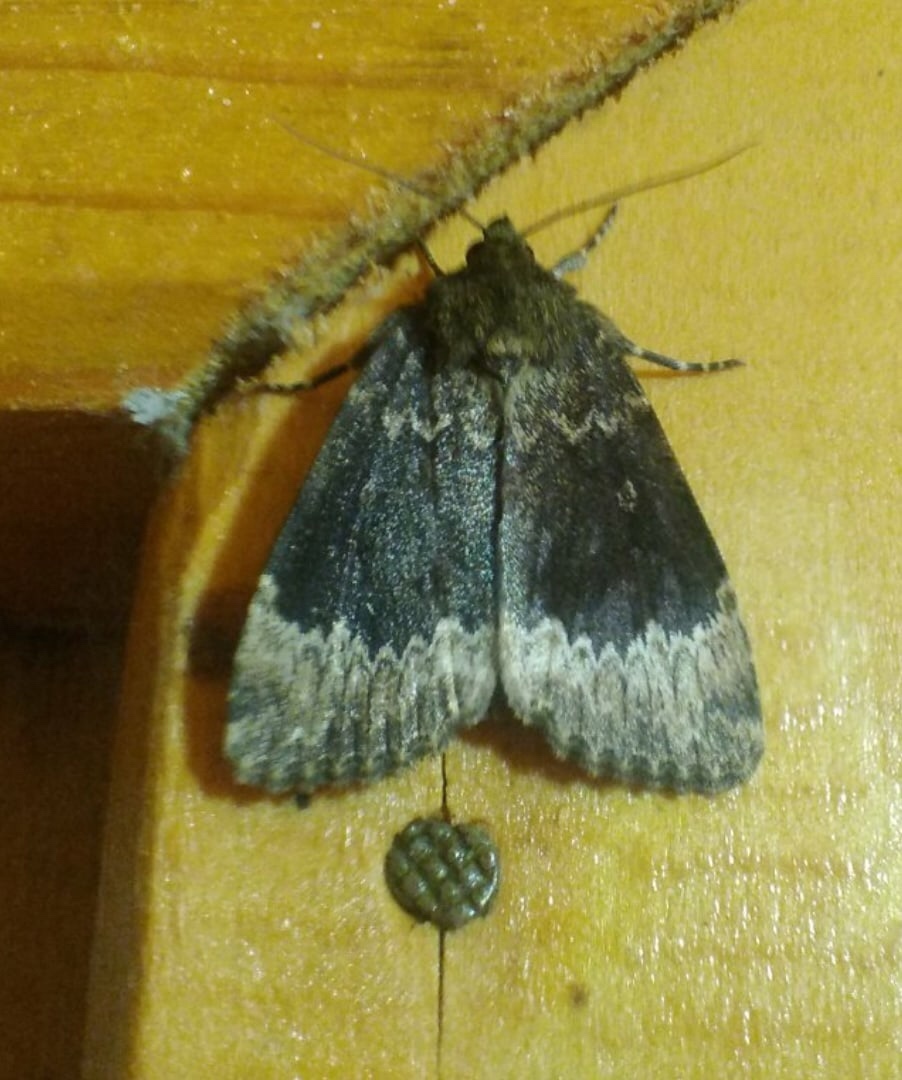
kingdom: Animalia
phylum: Arthropoda
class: Insecta
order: Lepidoptera
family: Noctuidae
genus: Amphipyra
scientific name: Amphipyra perflua
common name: Larger pale-tipped black moth
